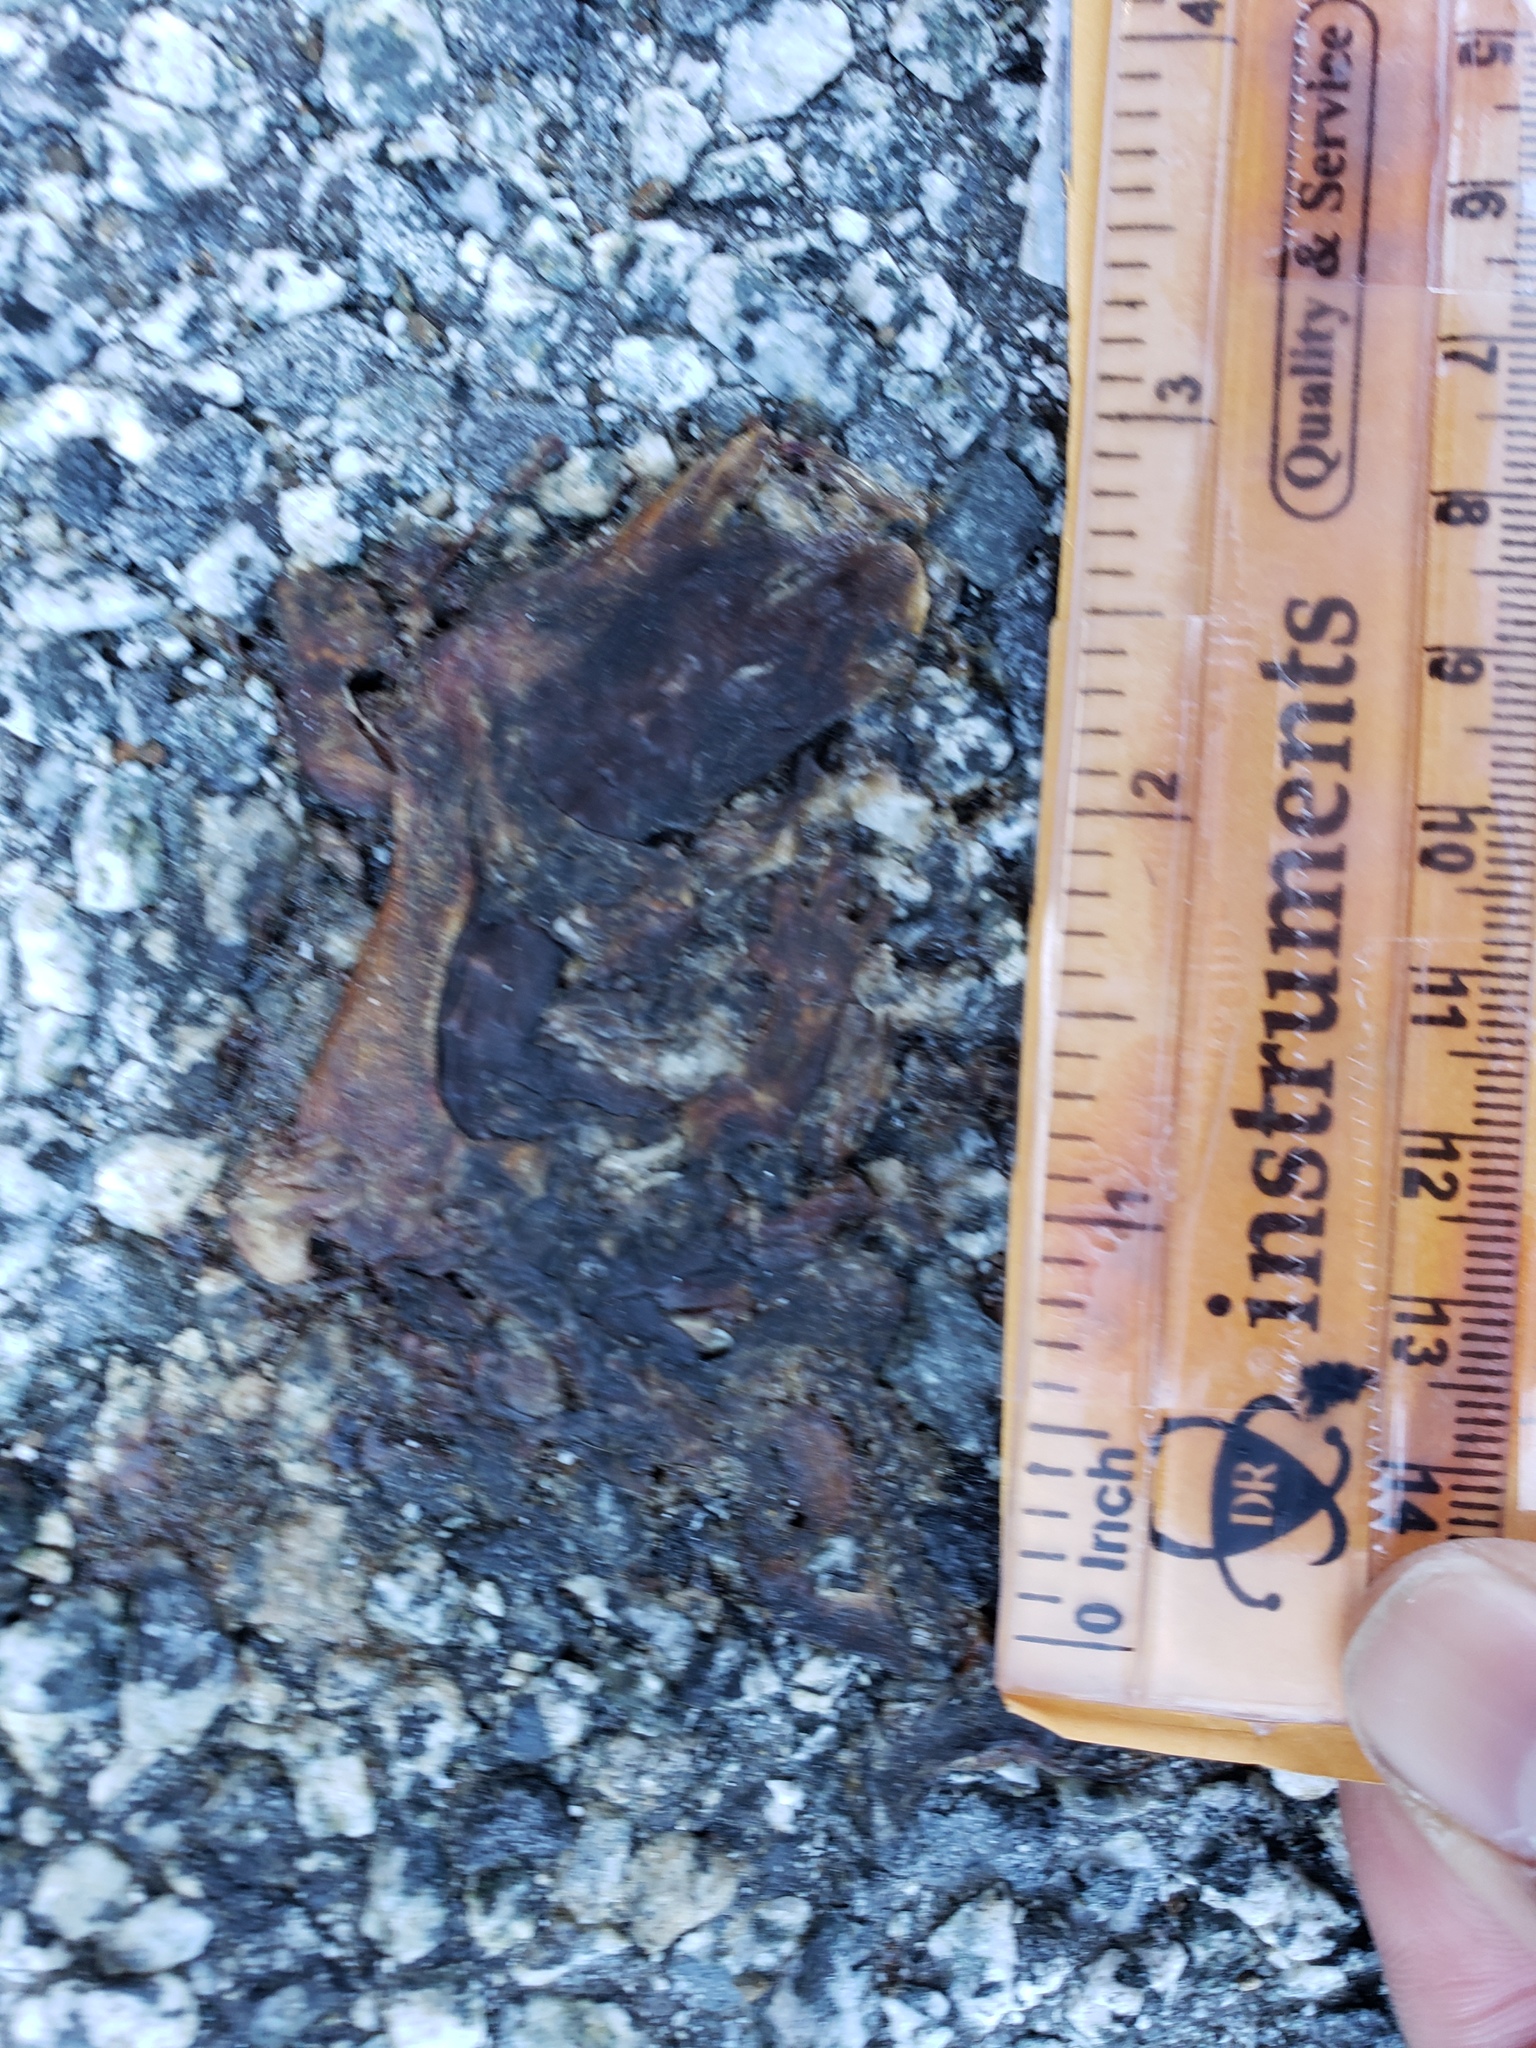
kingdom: Animalia
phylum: Chordata
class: Amphibia
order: Caudata
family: Salamandridae
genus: Taricha
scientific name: Taricha
